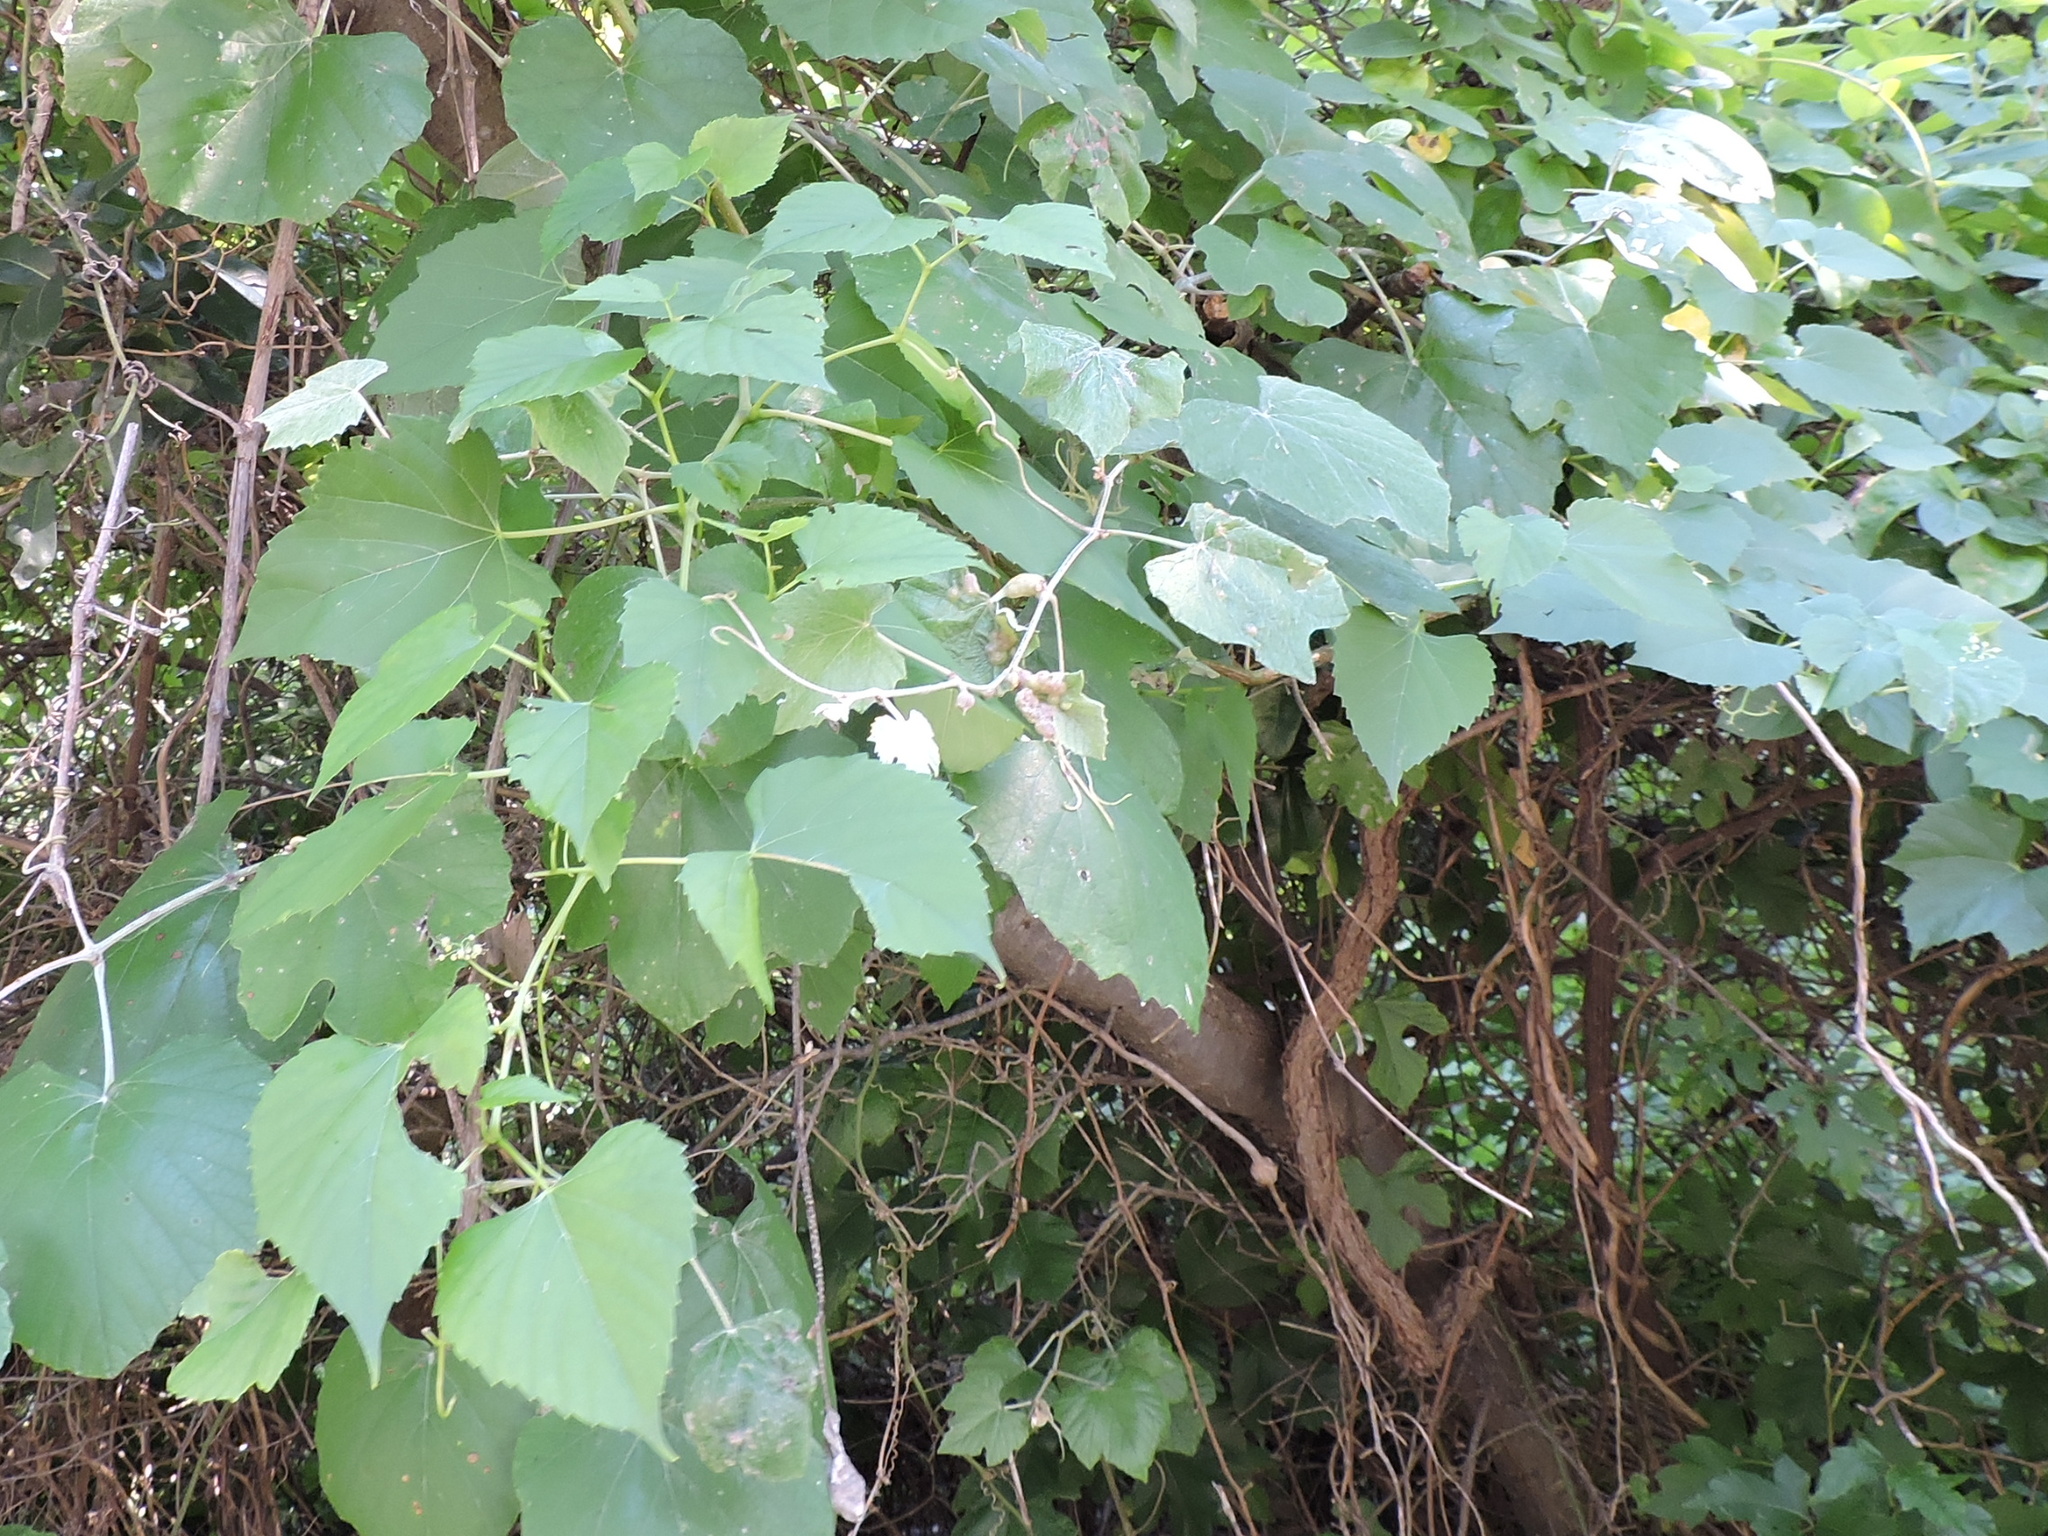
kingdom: Plantae
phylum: Tracheophyta
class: Magnoliopsida
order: Vitales
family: Vitaceae
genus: Ampelopsis
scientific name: Ampelopsis cordata
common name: Heart-leaf ampelopsis
